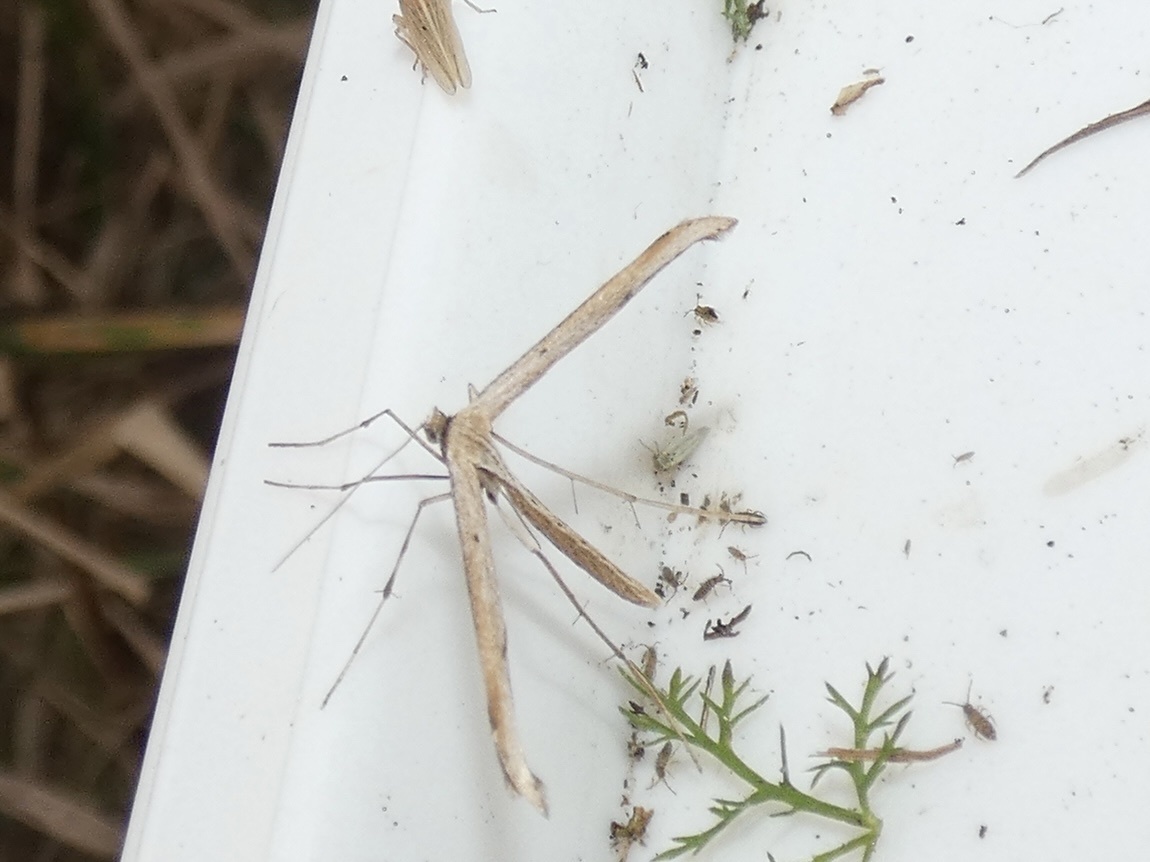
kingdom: Animalia
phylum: Arthropoda
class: Insecta
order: Lepidoptera
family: Pterophoridae
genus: Emmelina
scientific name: Emmelina monodactyla
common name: Common plume
